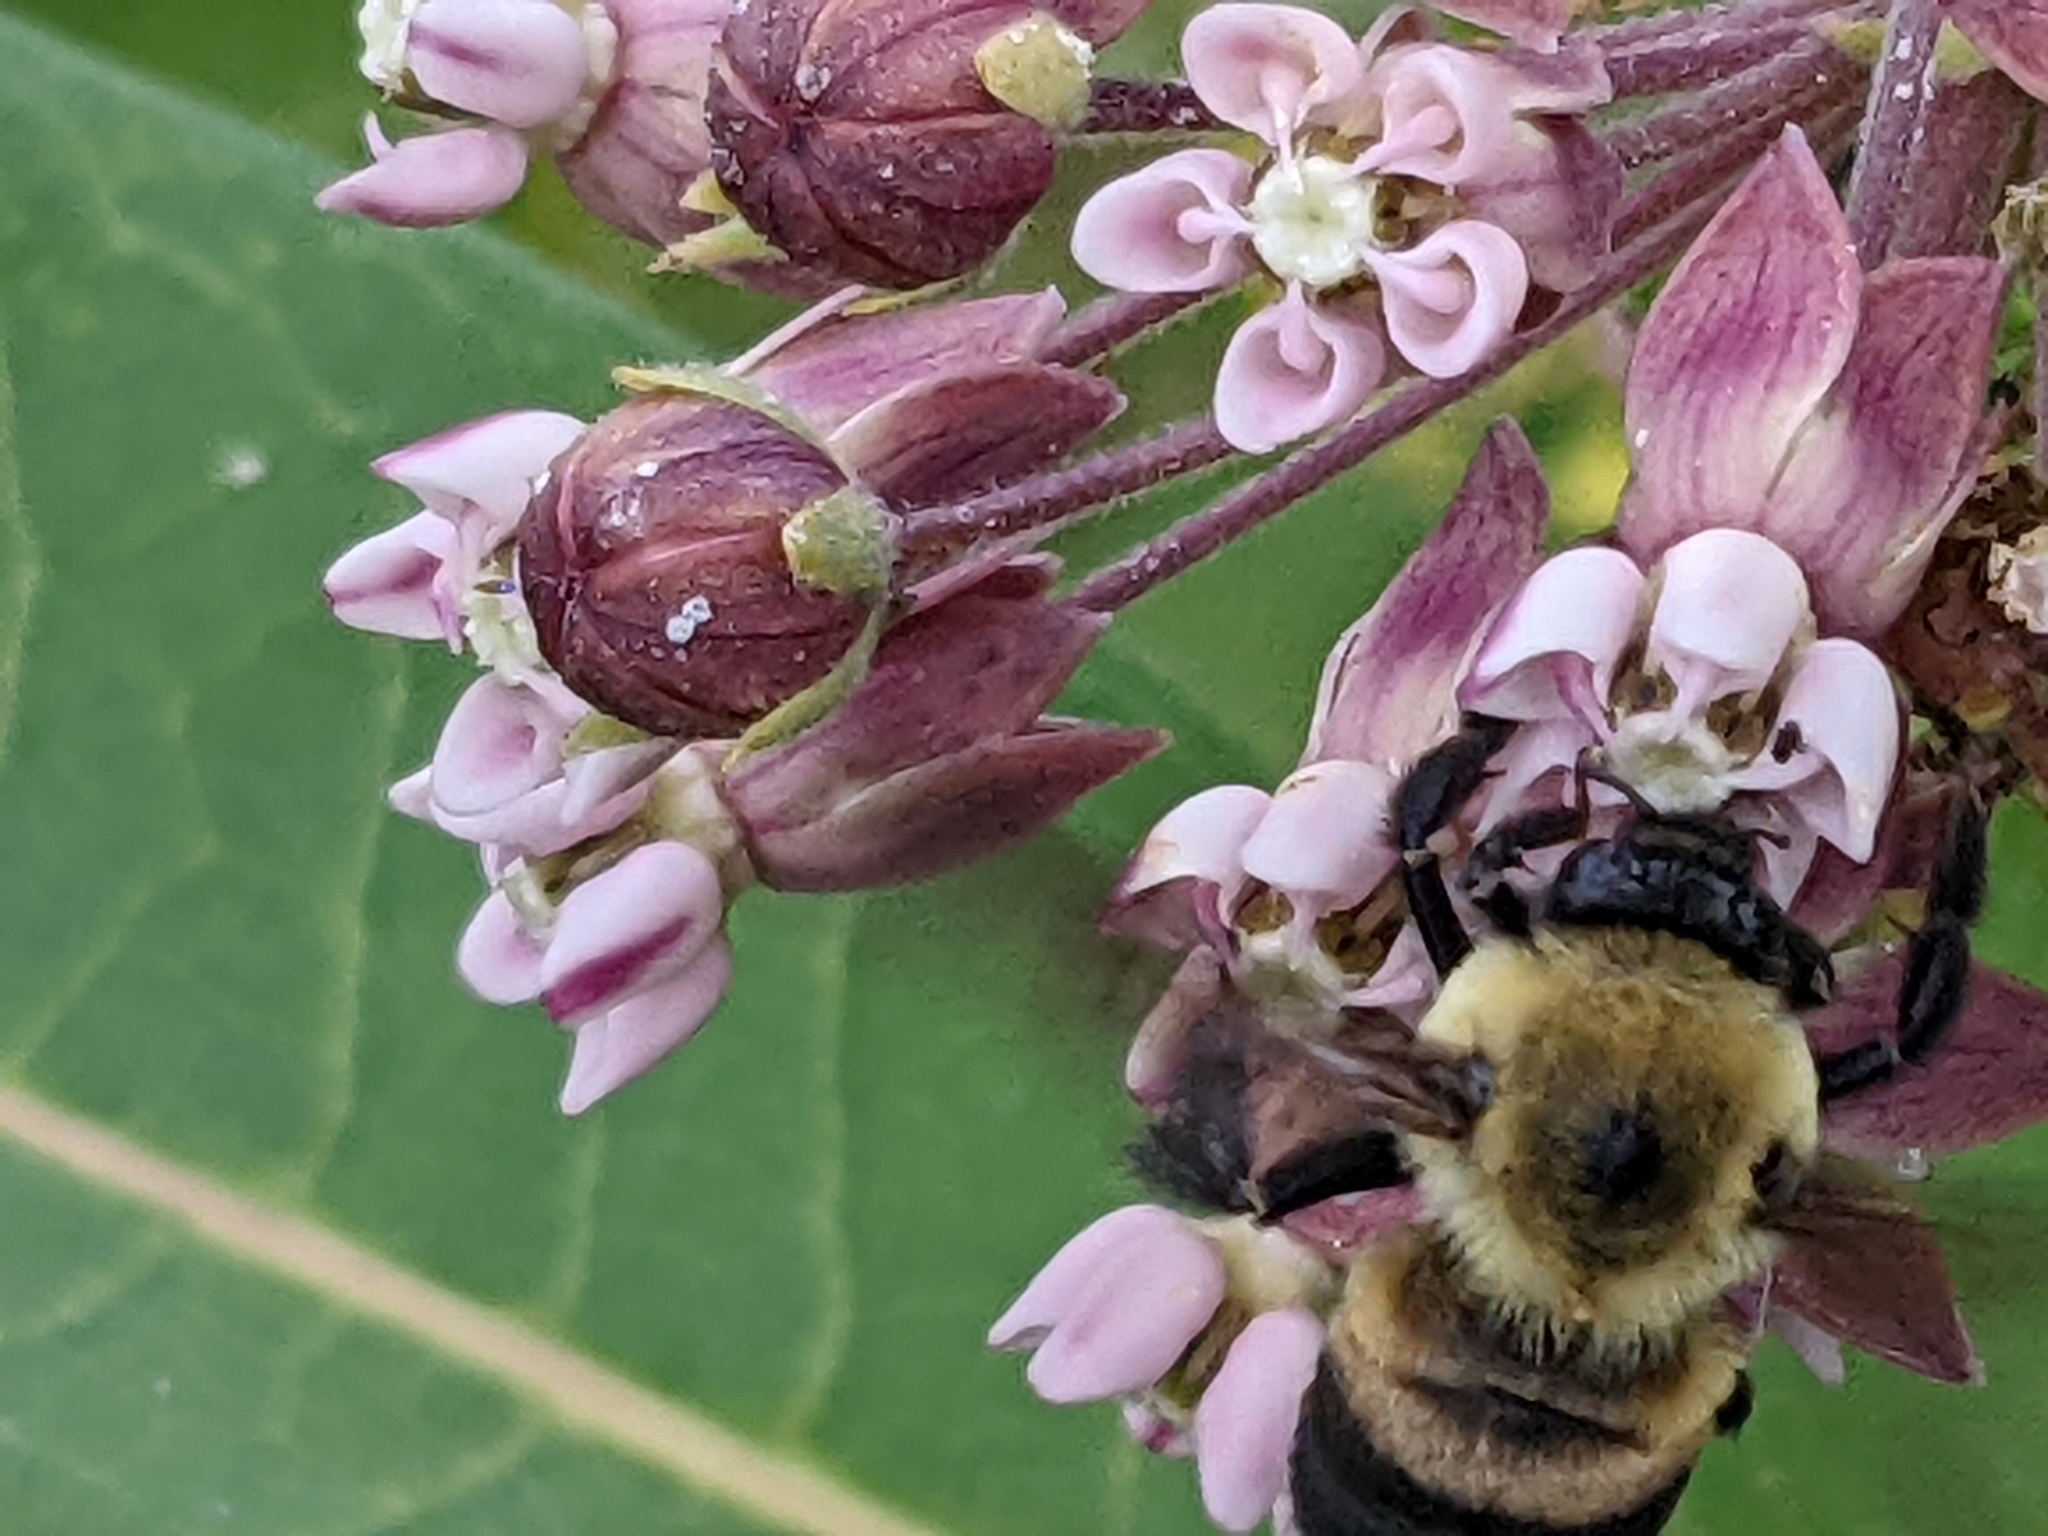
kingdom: Animalia
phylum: Arthropoda
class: Insecta
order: Hymenoptera
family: Apidae
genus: Bombus
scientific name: Bombus griseocollis
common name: Brown-belted bumble bee
